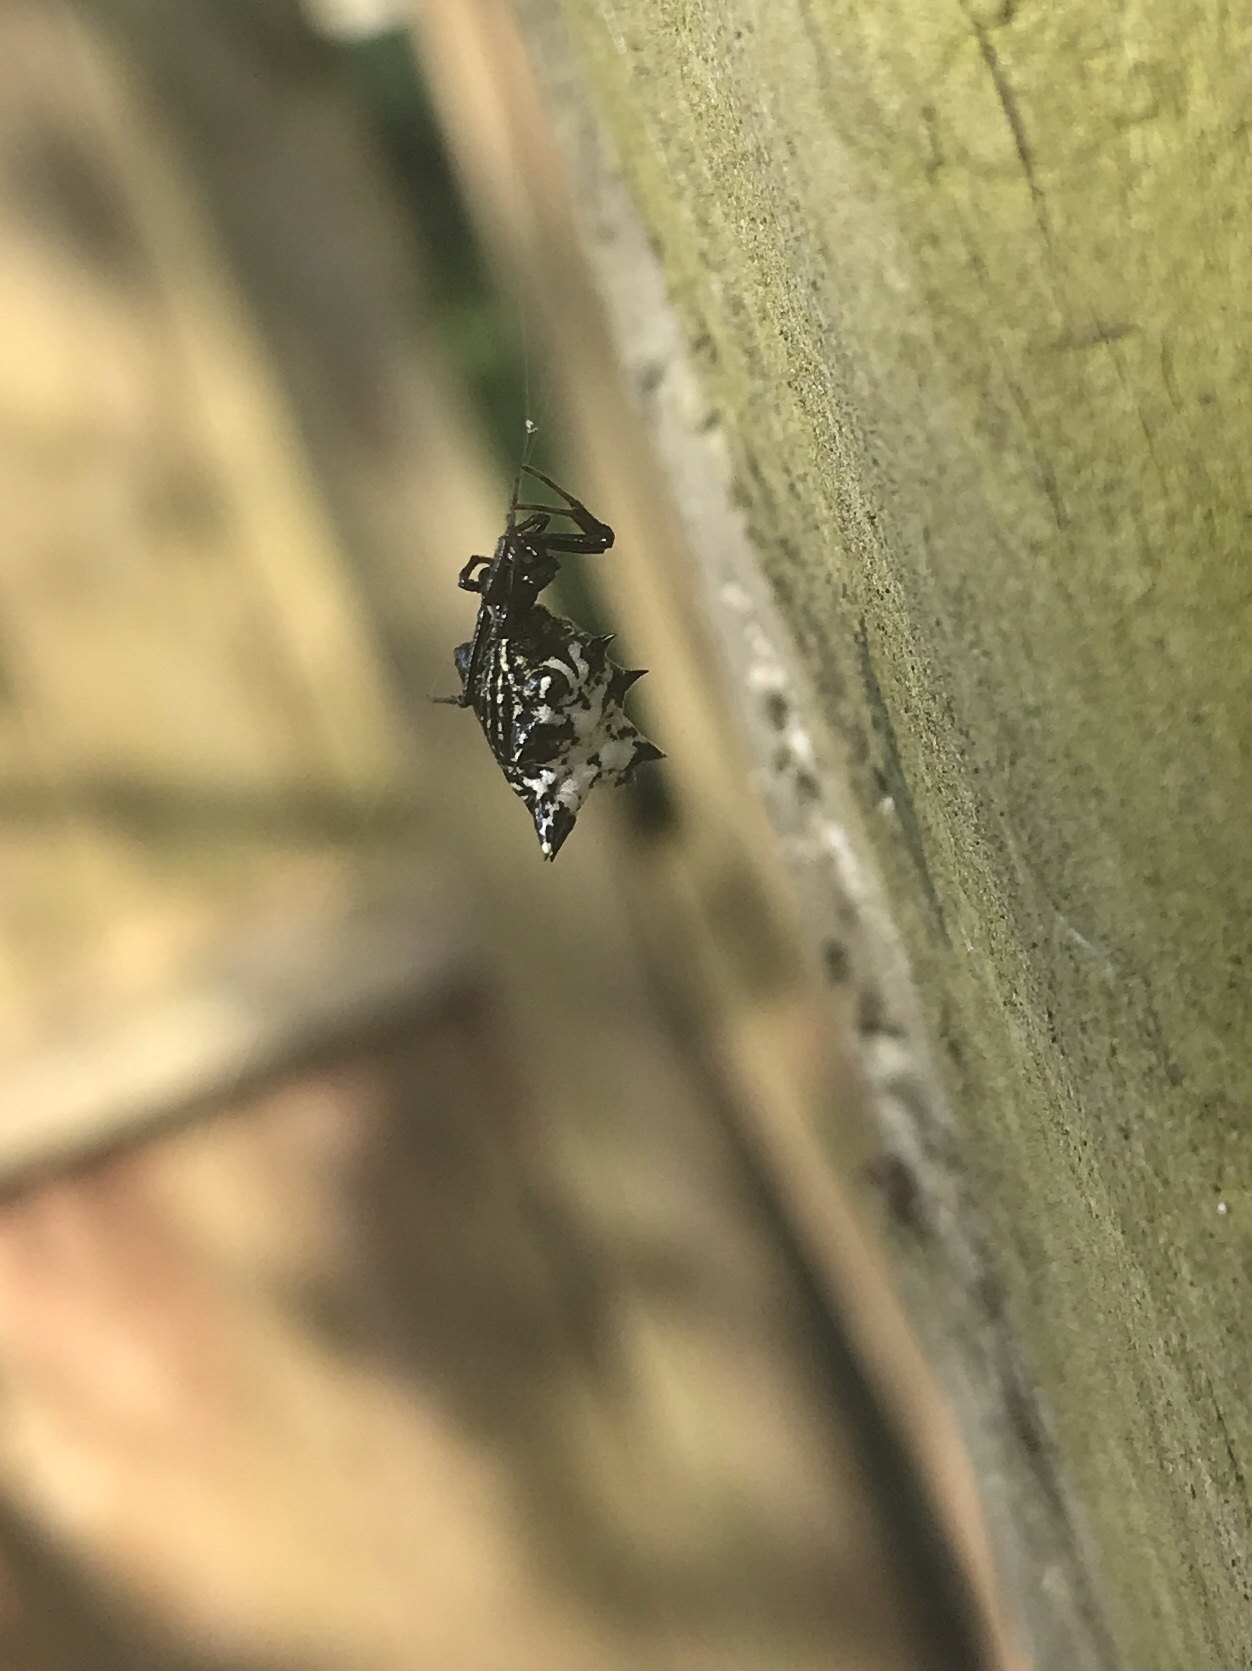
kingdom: Animalia
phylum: Arthropoda
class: Arachnida
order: Araneae
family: Araneidae
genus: Micrathena
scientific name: Micrathena gracilis
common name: Orb weavers
